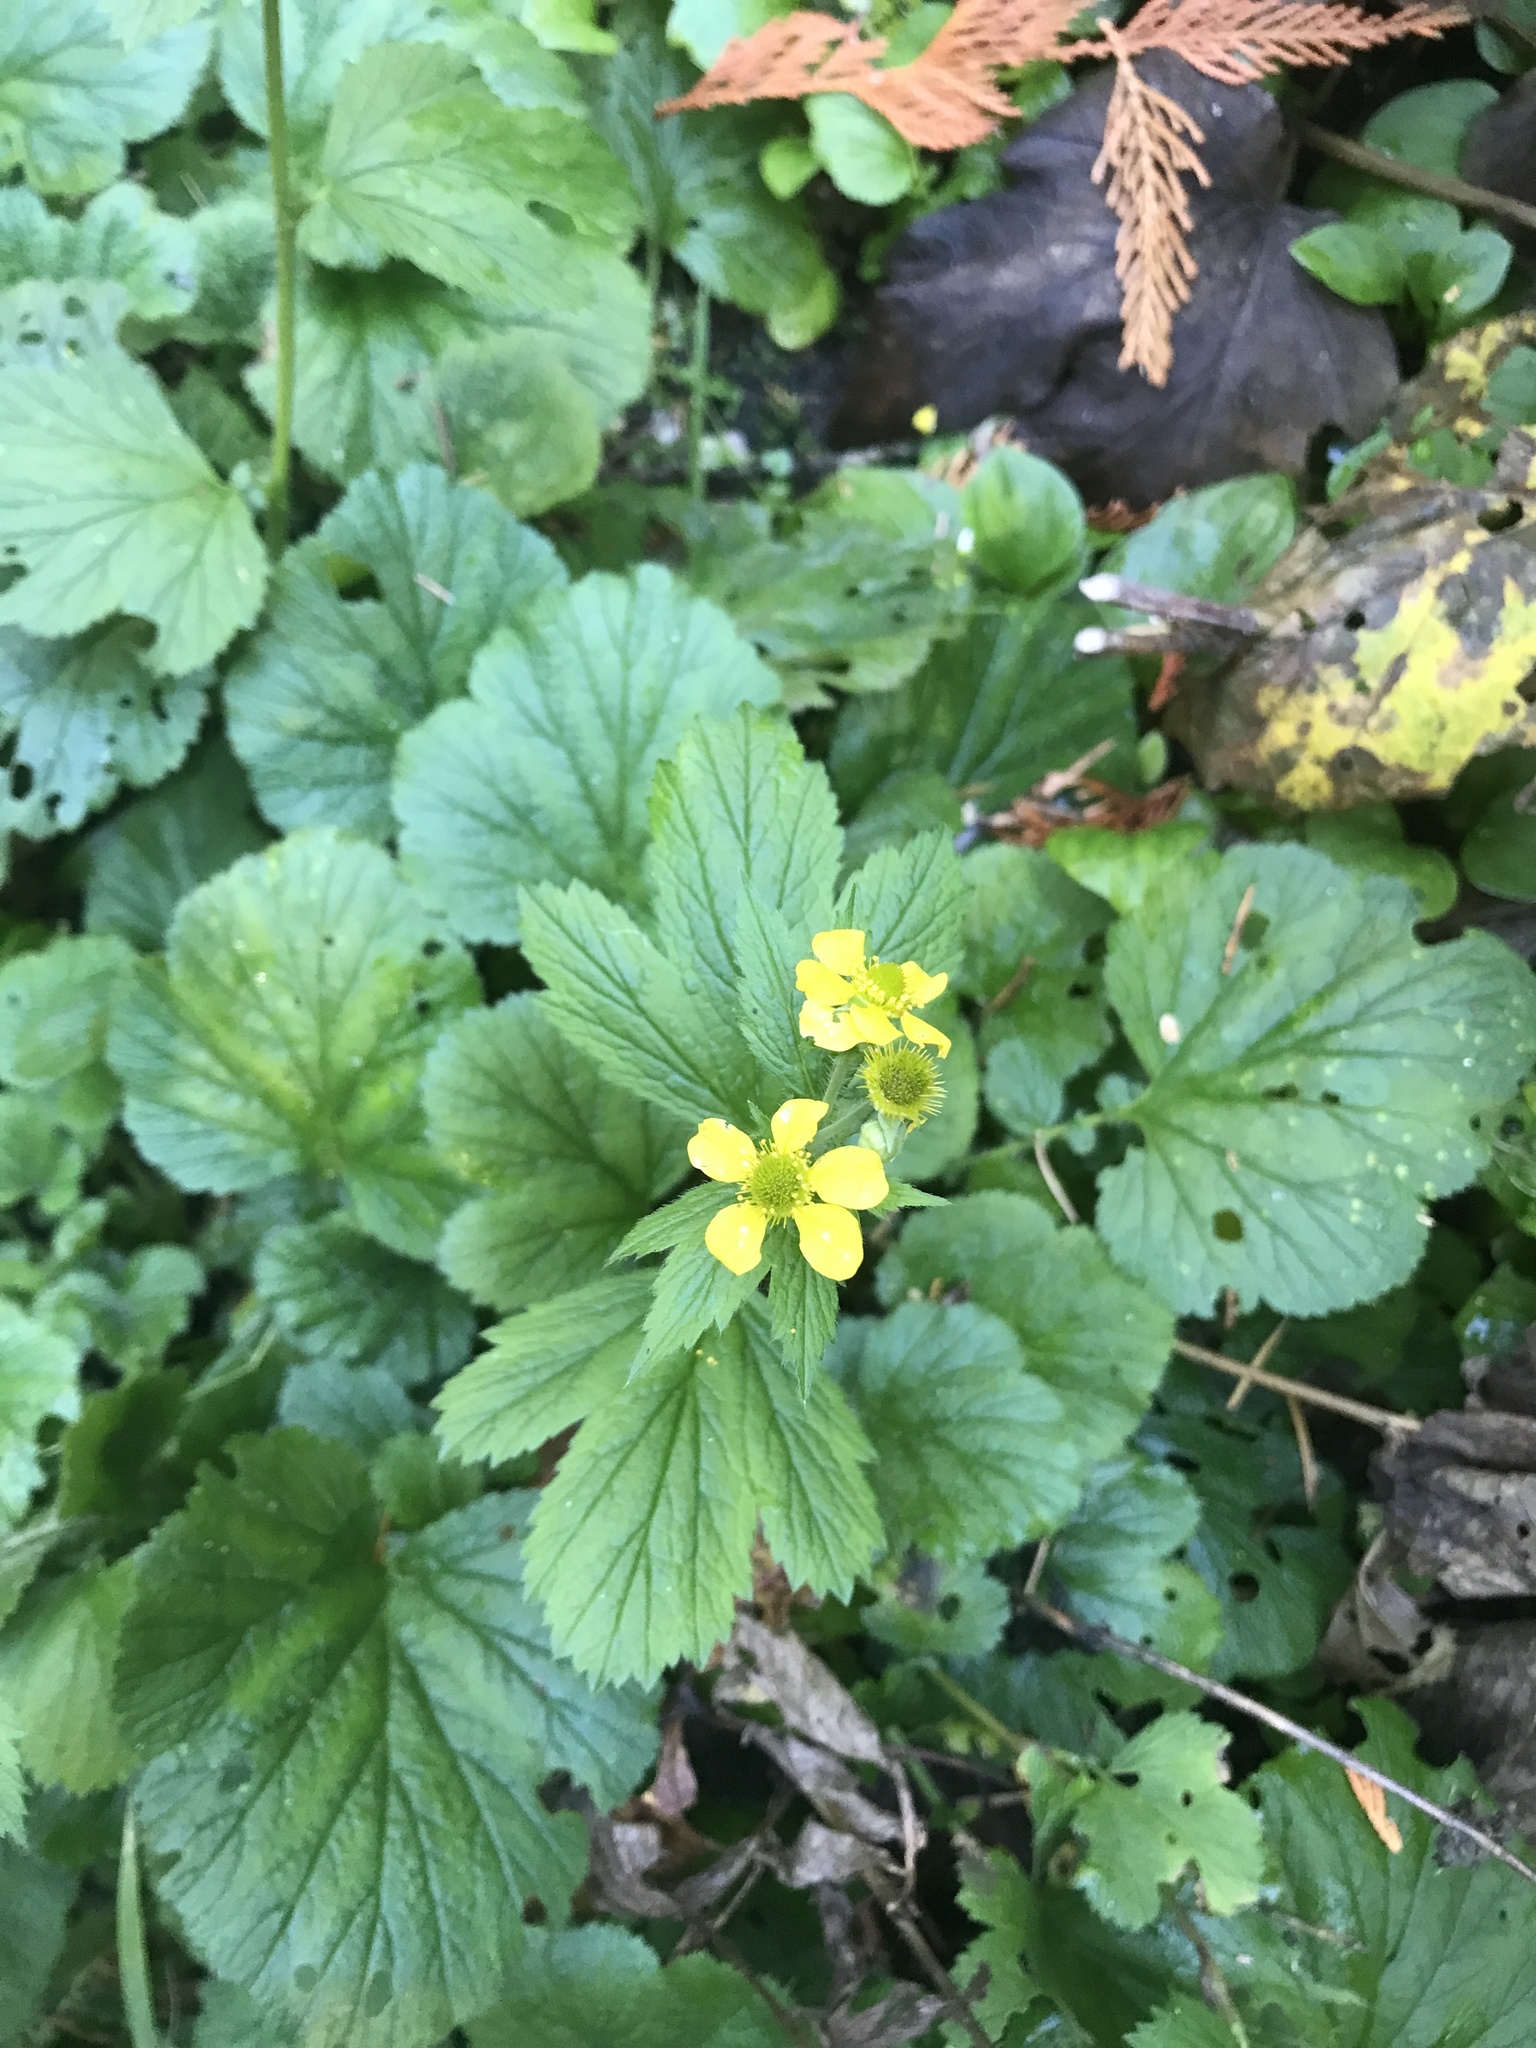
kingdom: Plantae
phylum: Tracheophyta
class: Magnoliopsida
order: Rosales
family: Rosaceae
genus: Geum
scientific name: Geum macrophyllum
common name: Large-leaved avens
